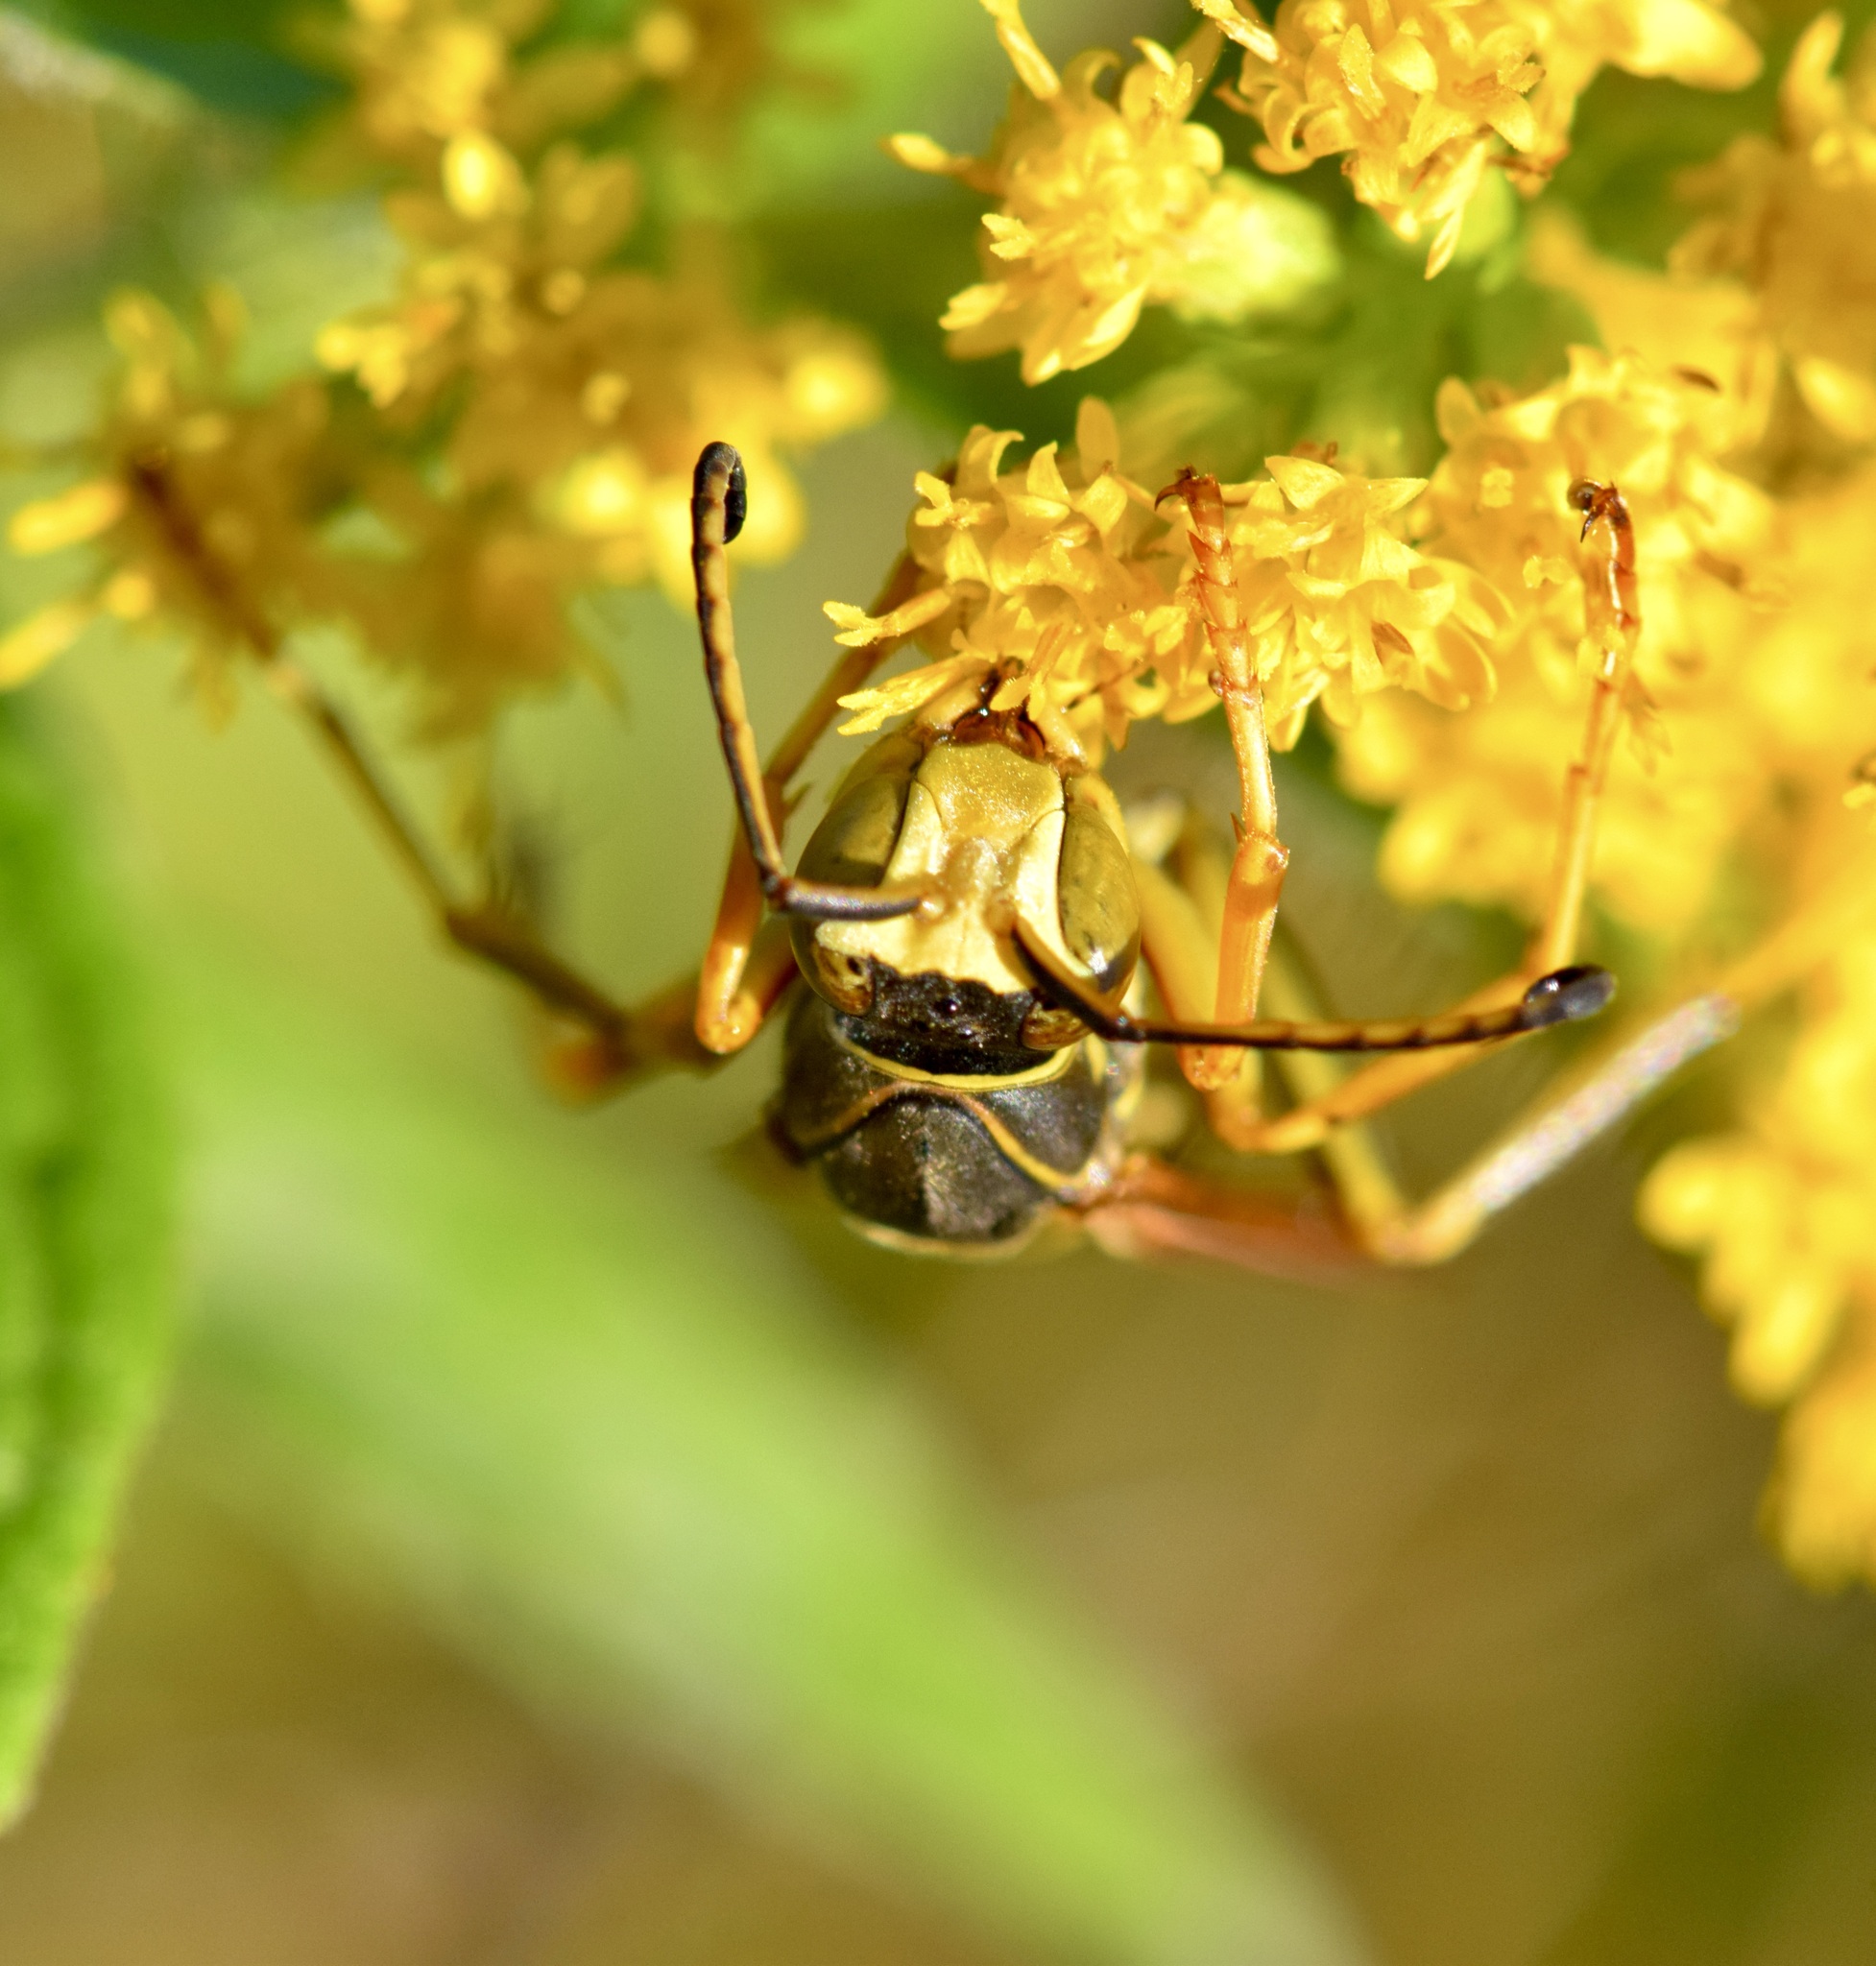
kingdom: Animalia
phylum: Arthropoda
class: Insecta
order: Hymenoptera
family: Eumenidae
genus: Polistes
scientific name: Polistes fuscatus
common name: Dark paper wasp
